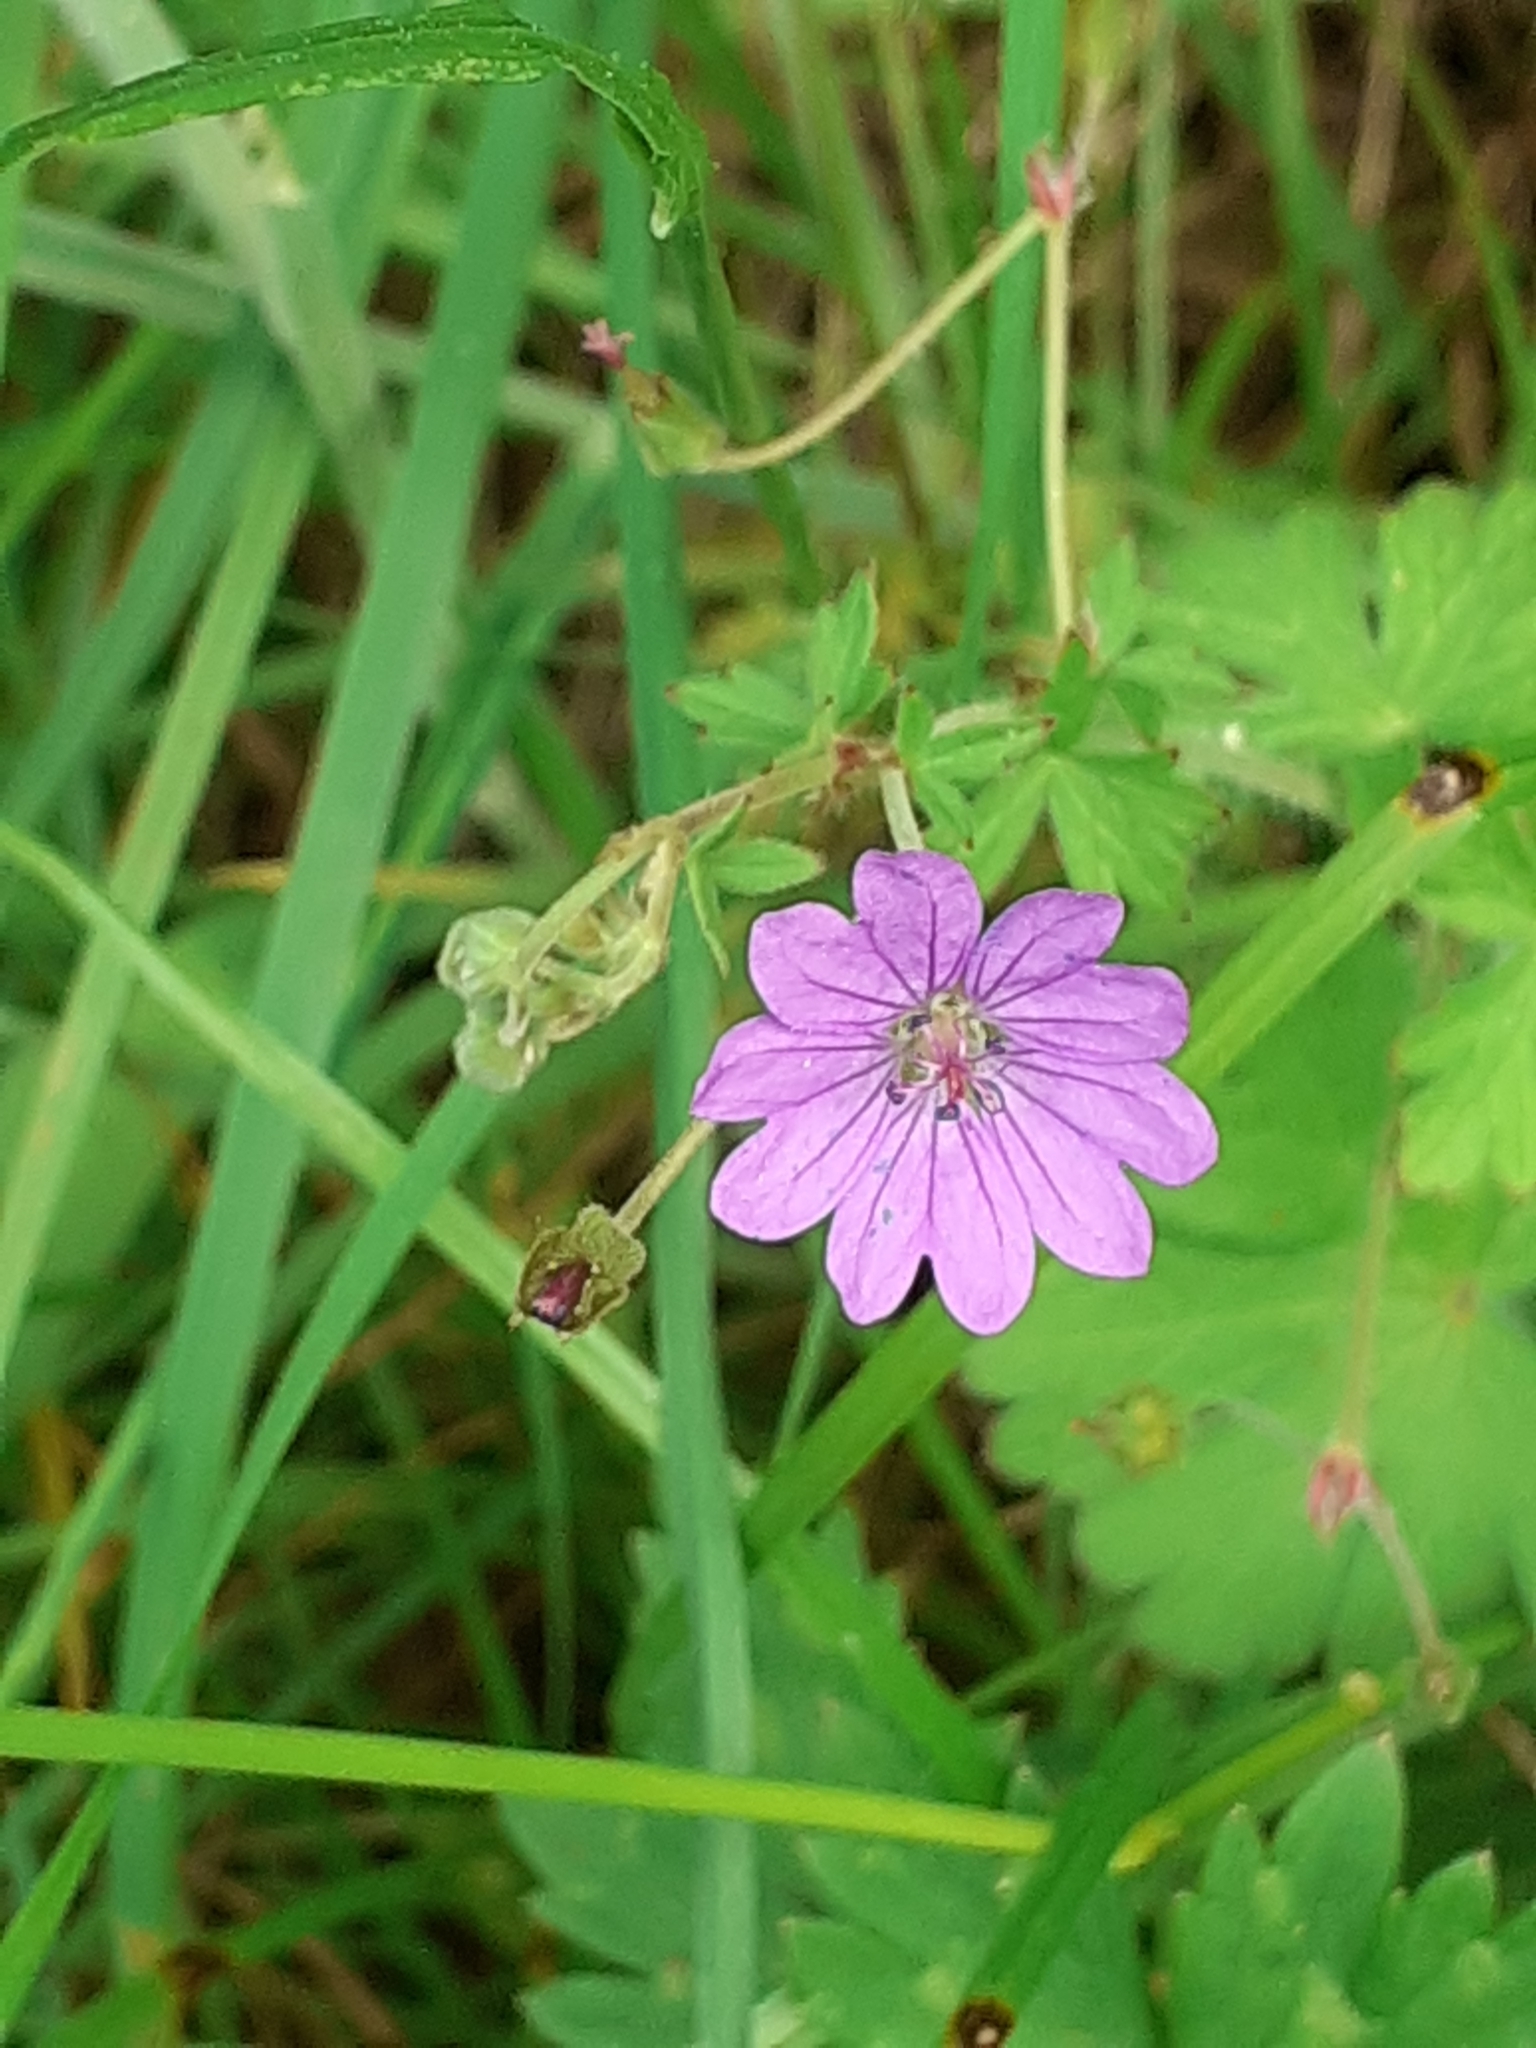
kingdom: Plantae
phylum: Tracheophyta
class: Magnoliopsida
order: Geraniales
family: Geraniaceae
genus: Geranium
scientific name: Geranium pyrenaicum
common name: Hedgerow crane's-bill
